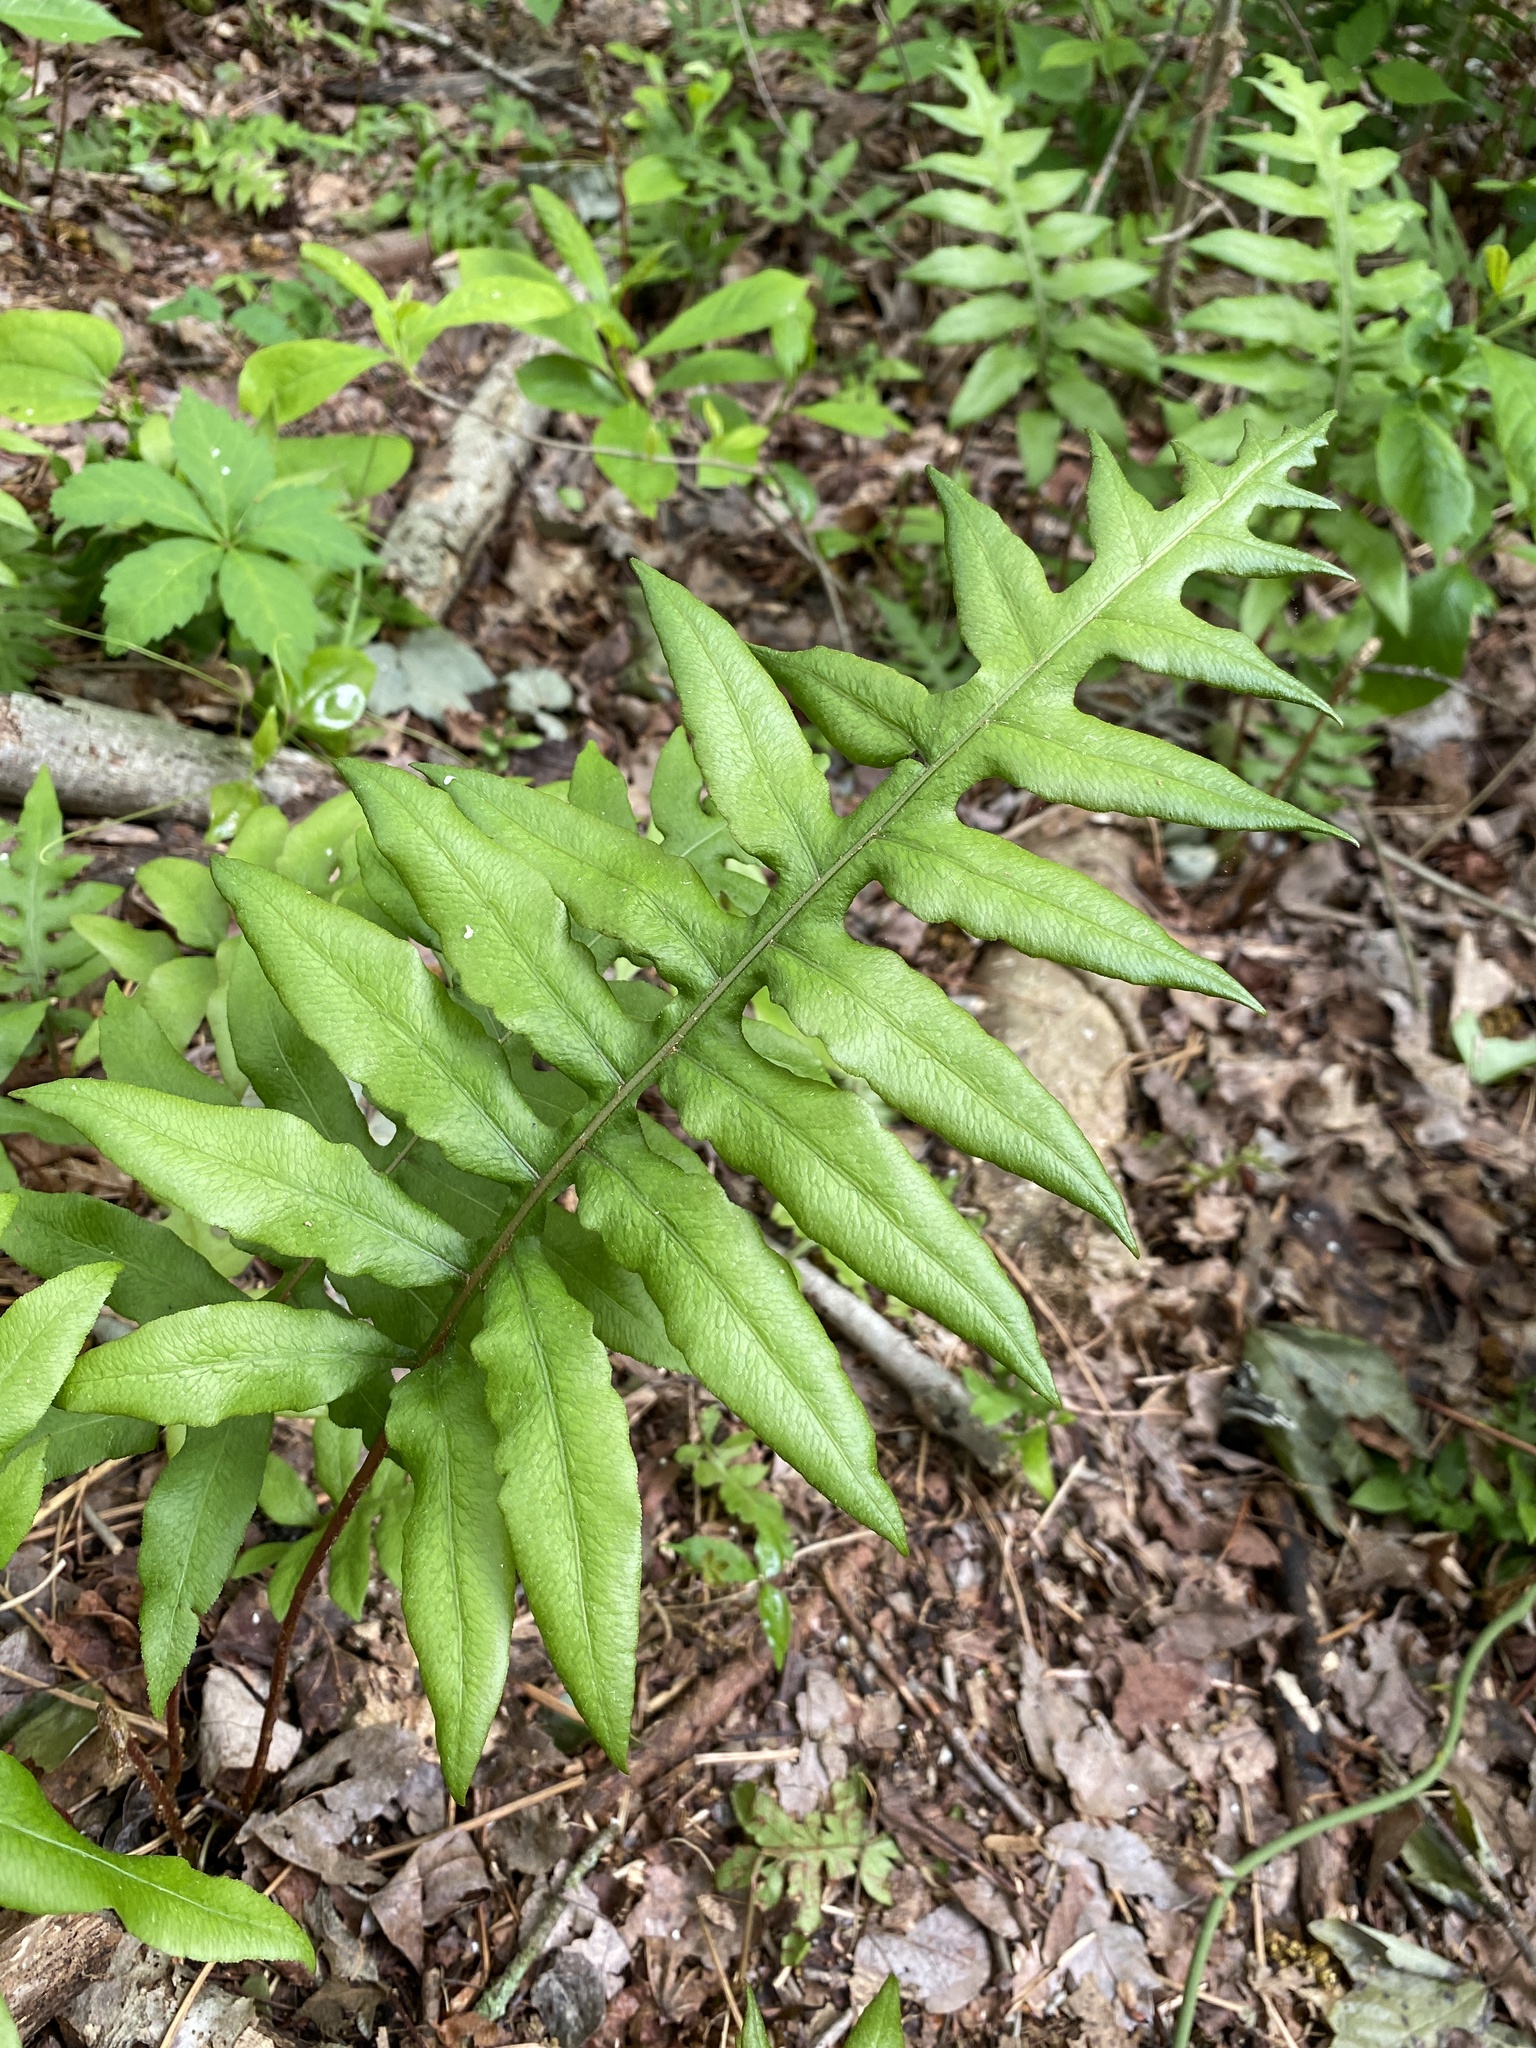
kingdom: Plantae
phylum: Tracheophyta
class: Polypodiopsida
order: Polypodiales
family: Blechnaceae
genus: Lorinseria
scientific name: Lorinseria areolata
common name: Dwarf chain fern
